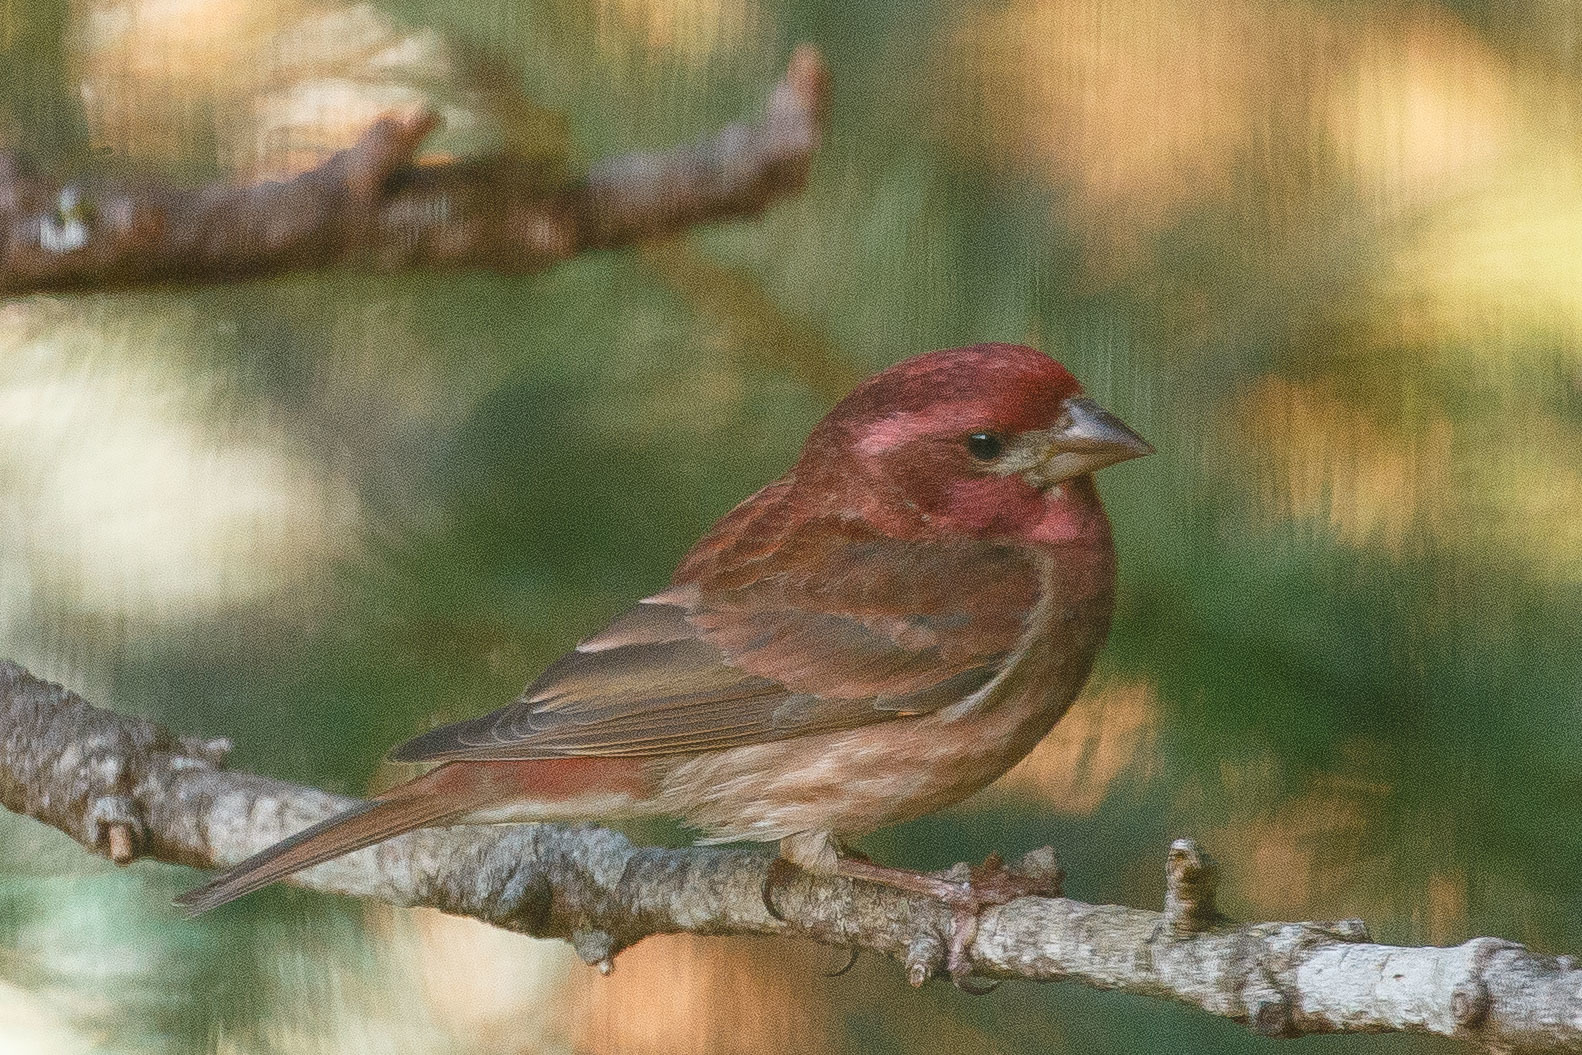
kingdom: Animalia
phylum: Chordata
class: Aves
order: Passeriformes
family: Fringillidae
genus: Haemorhous
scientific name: Haemorhous purpureus
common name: Purple finch
